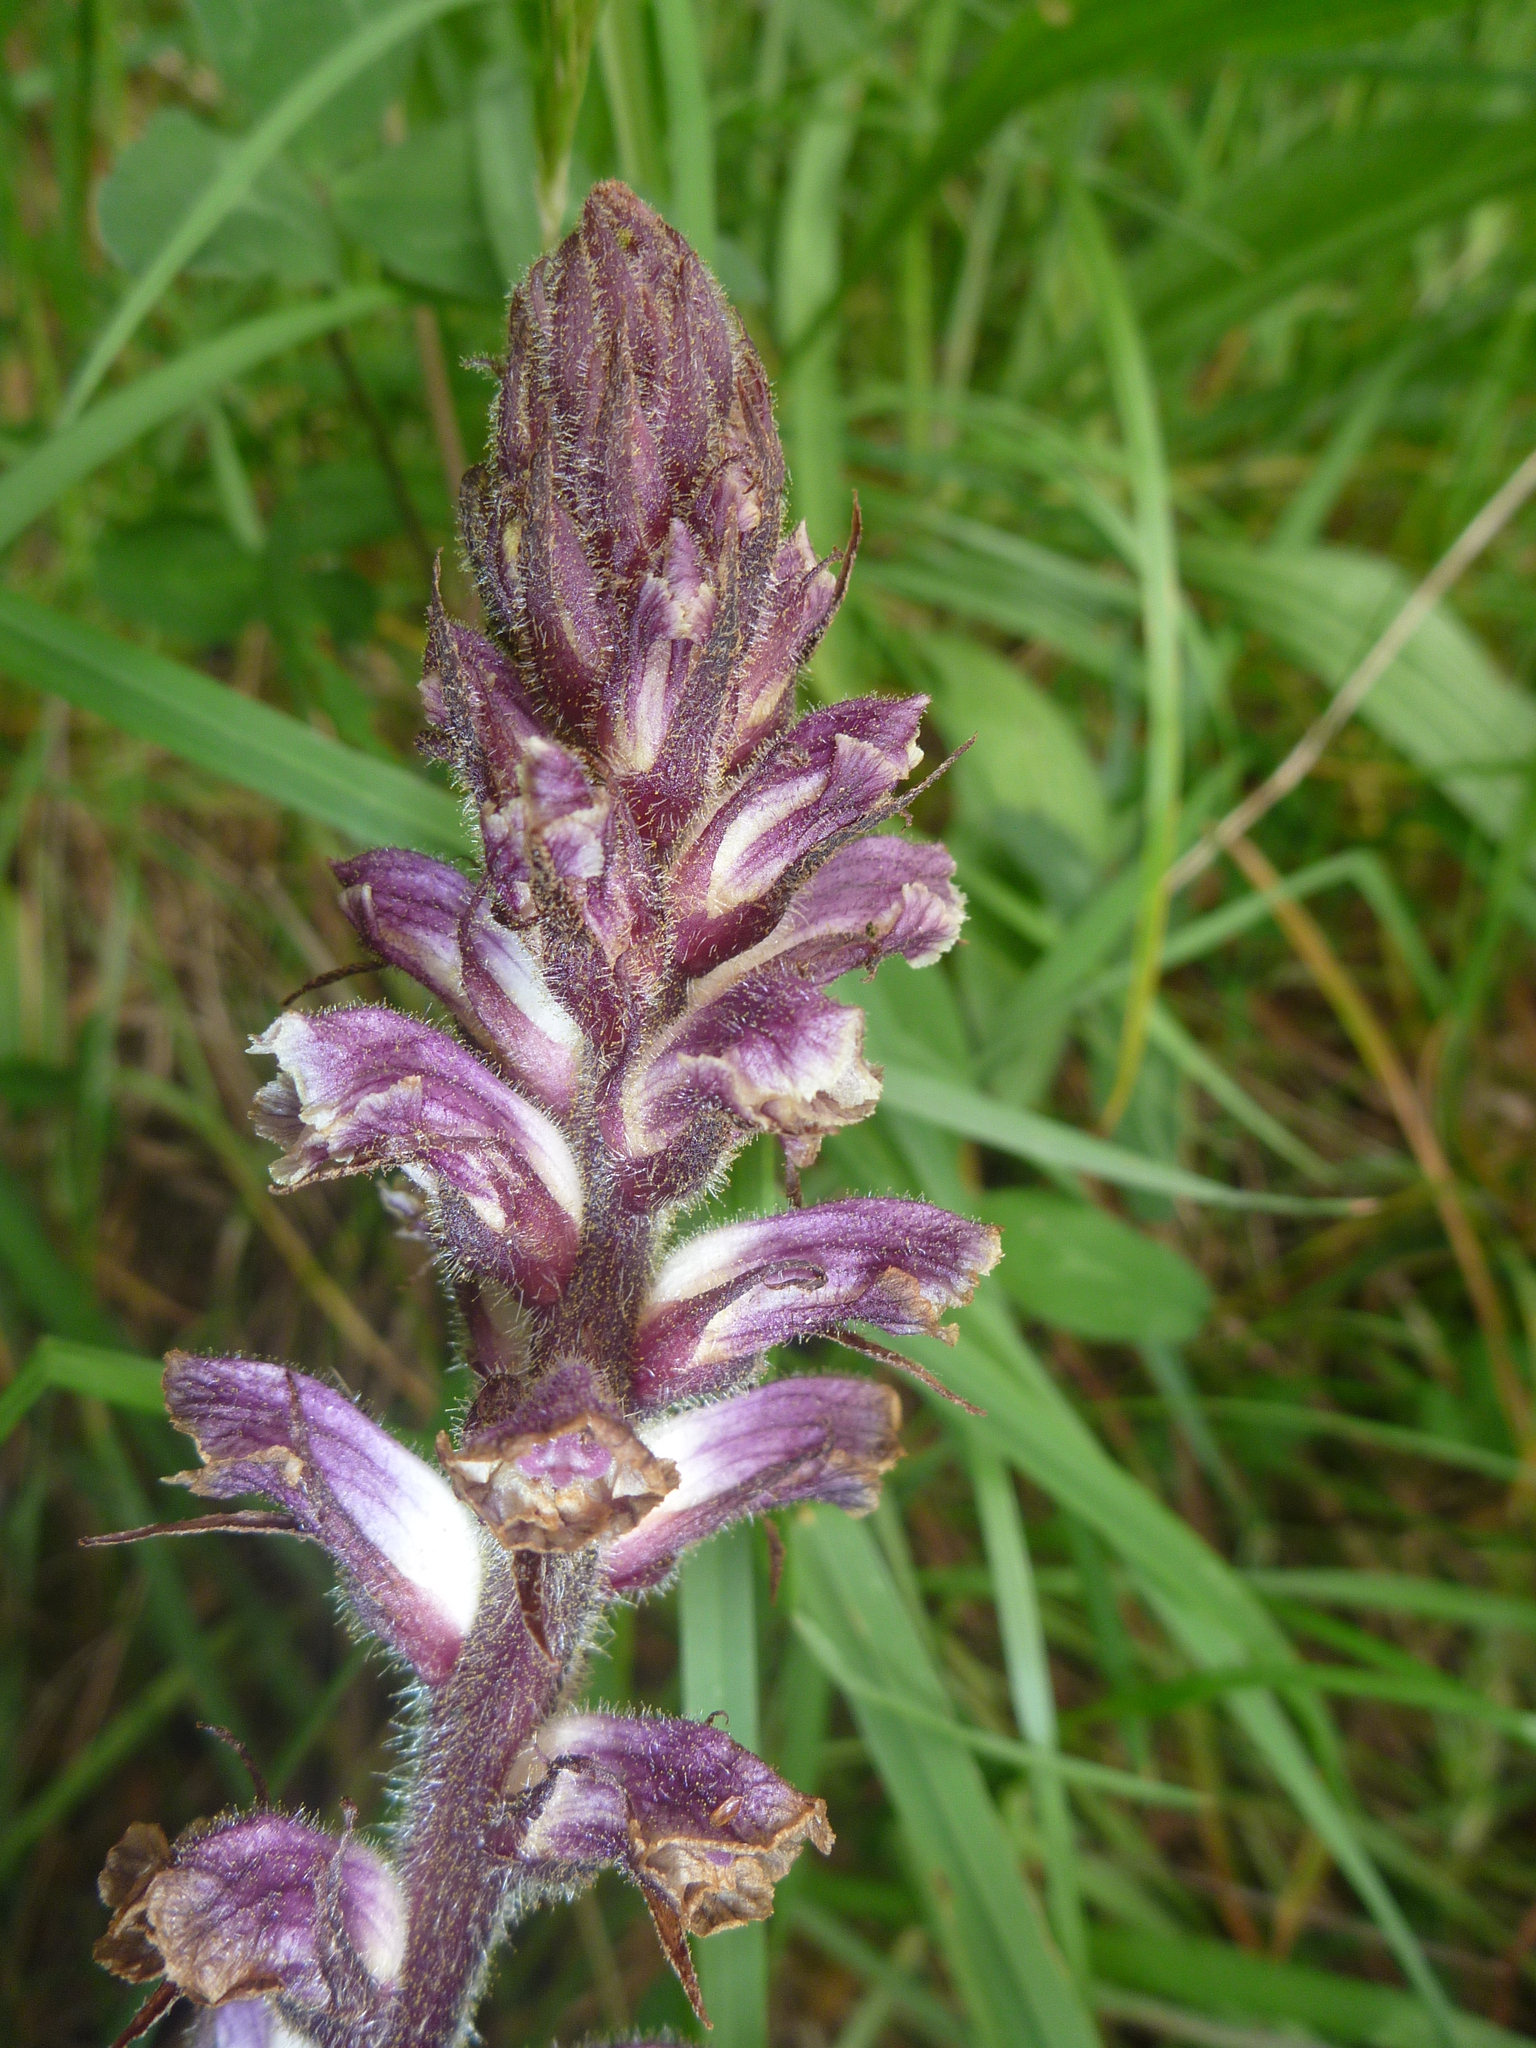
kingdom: Plantae
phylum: Tracheophyta
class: Magnoliopsida
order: Lamiales
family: Orobanchaceae
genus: Orobanche
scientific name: Orobanche minor
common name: Common broomrape
